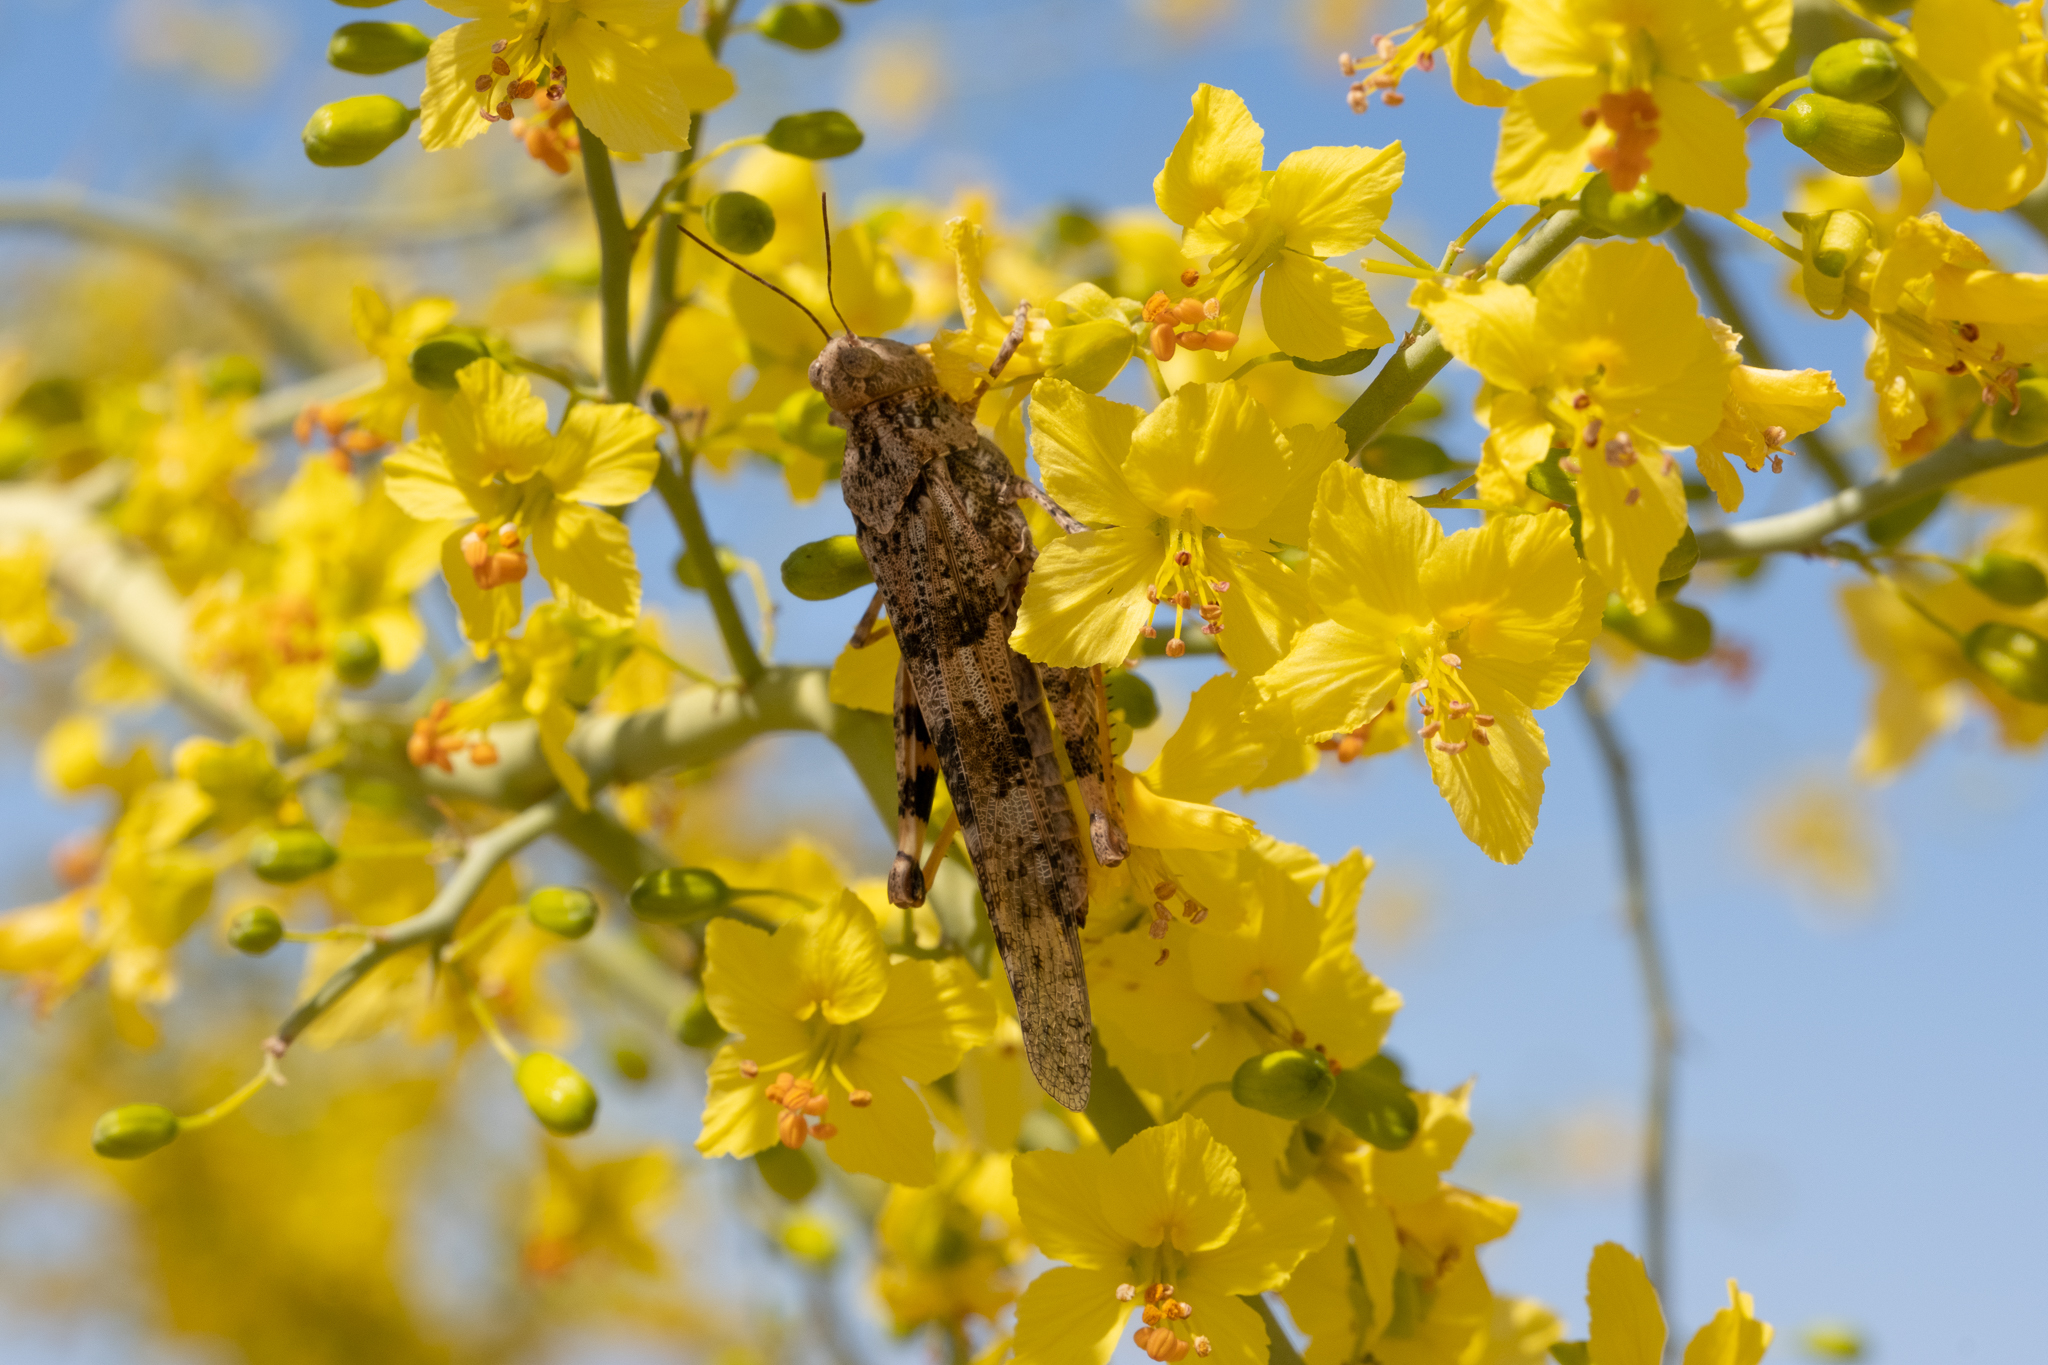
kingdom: Animalia
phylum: Arthropoda
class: Insecta
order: Orthoptera
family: Acrididae
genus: Trimerotropis
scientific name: Trimerotropis pallidipennis
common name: Pallid-winged grasshopper
